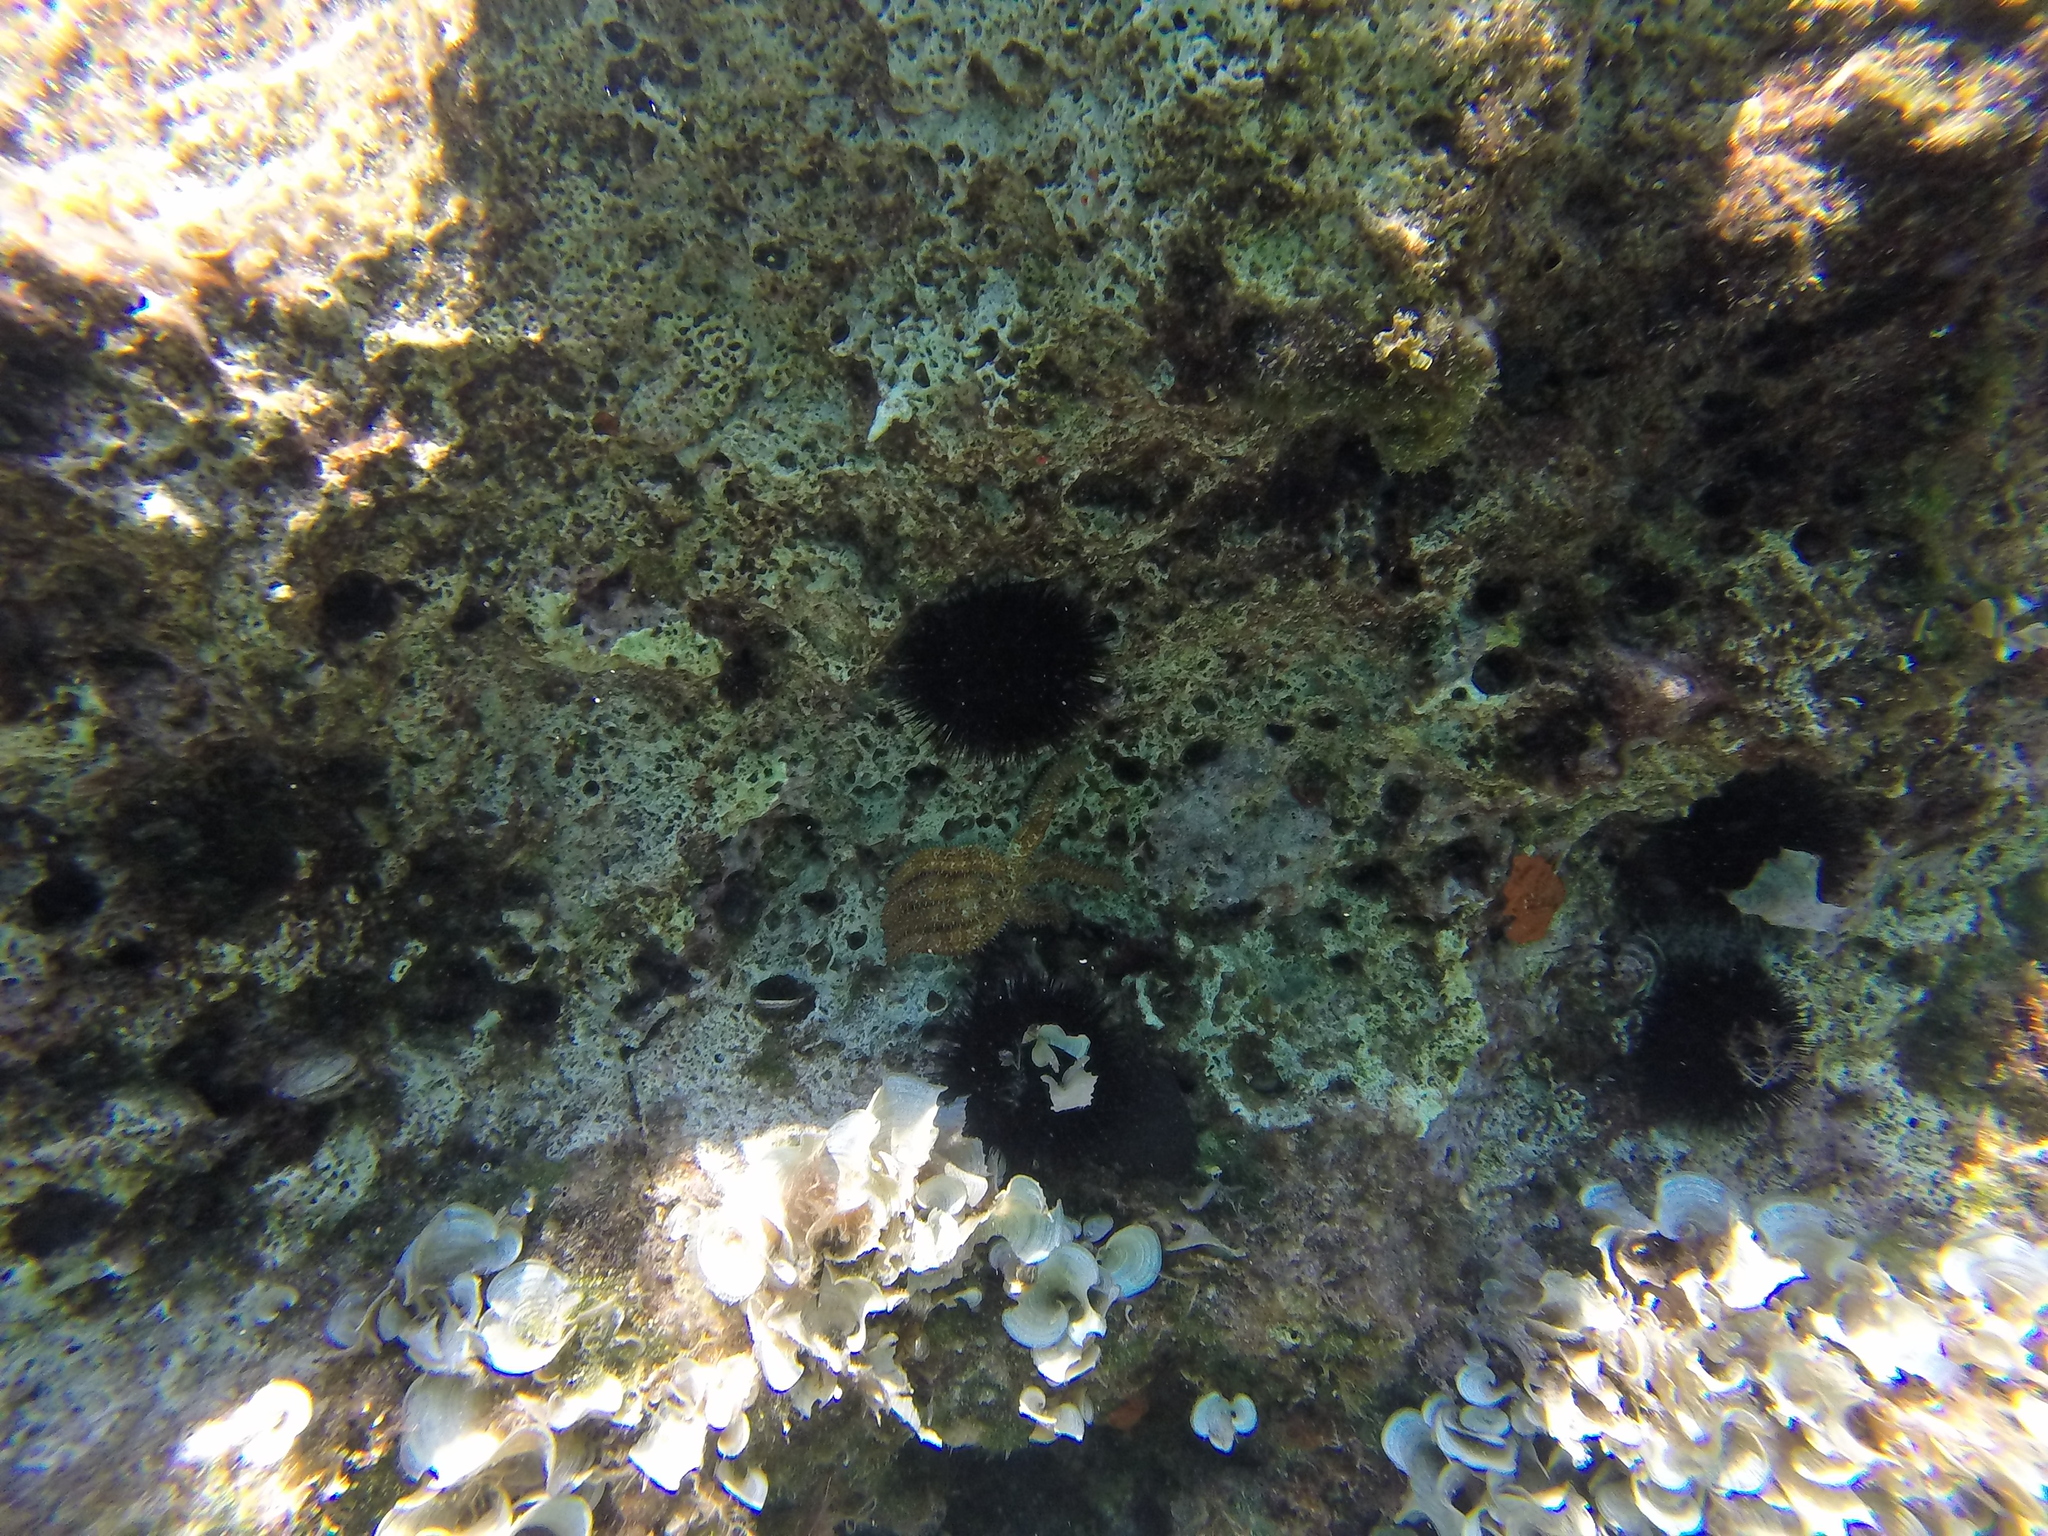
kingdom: Animalia
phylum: Echinodermata
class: Asteroidea
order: Forcipulatida
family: Asteriidae
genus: Coscinasterias
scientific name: Coscinasterias tenuispina
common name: Blue spiny starfish
